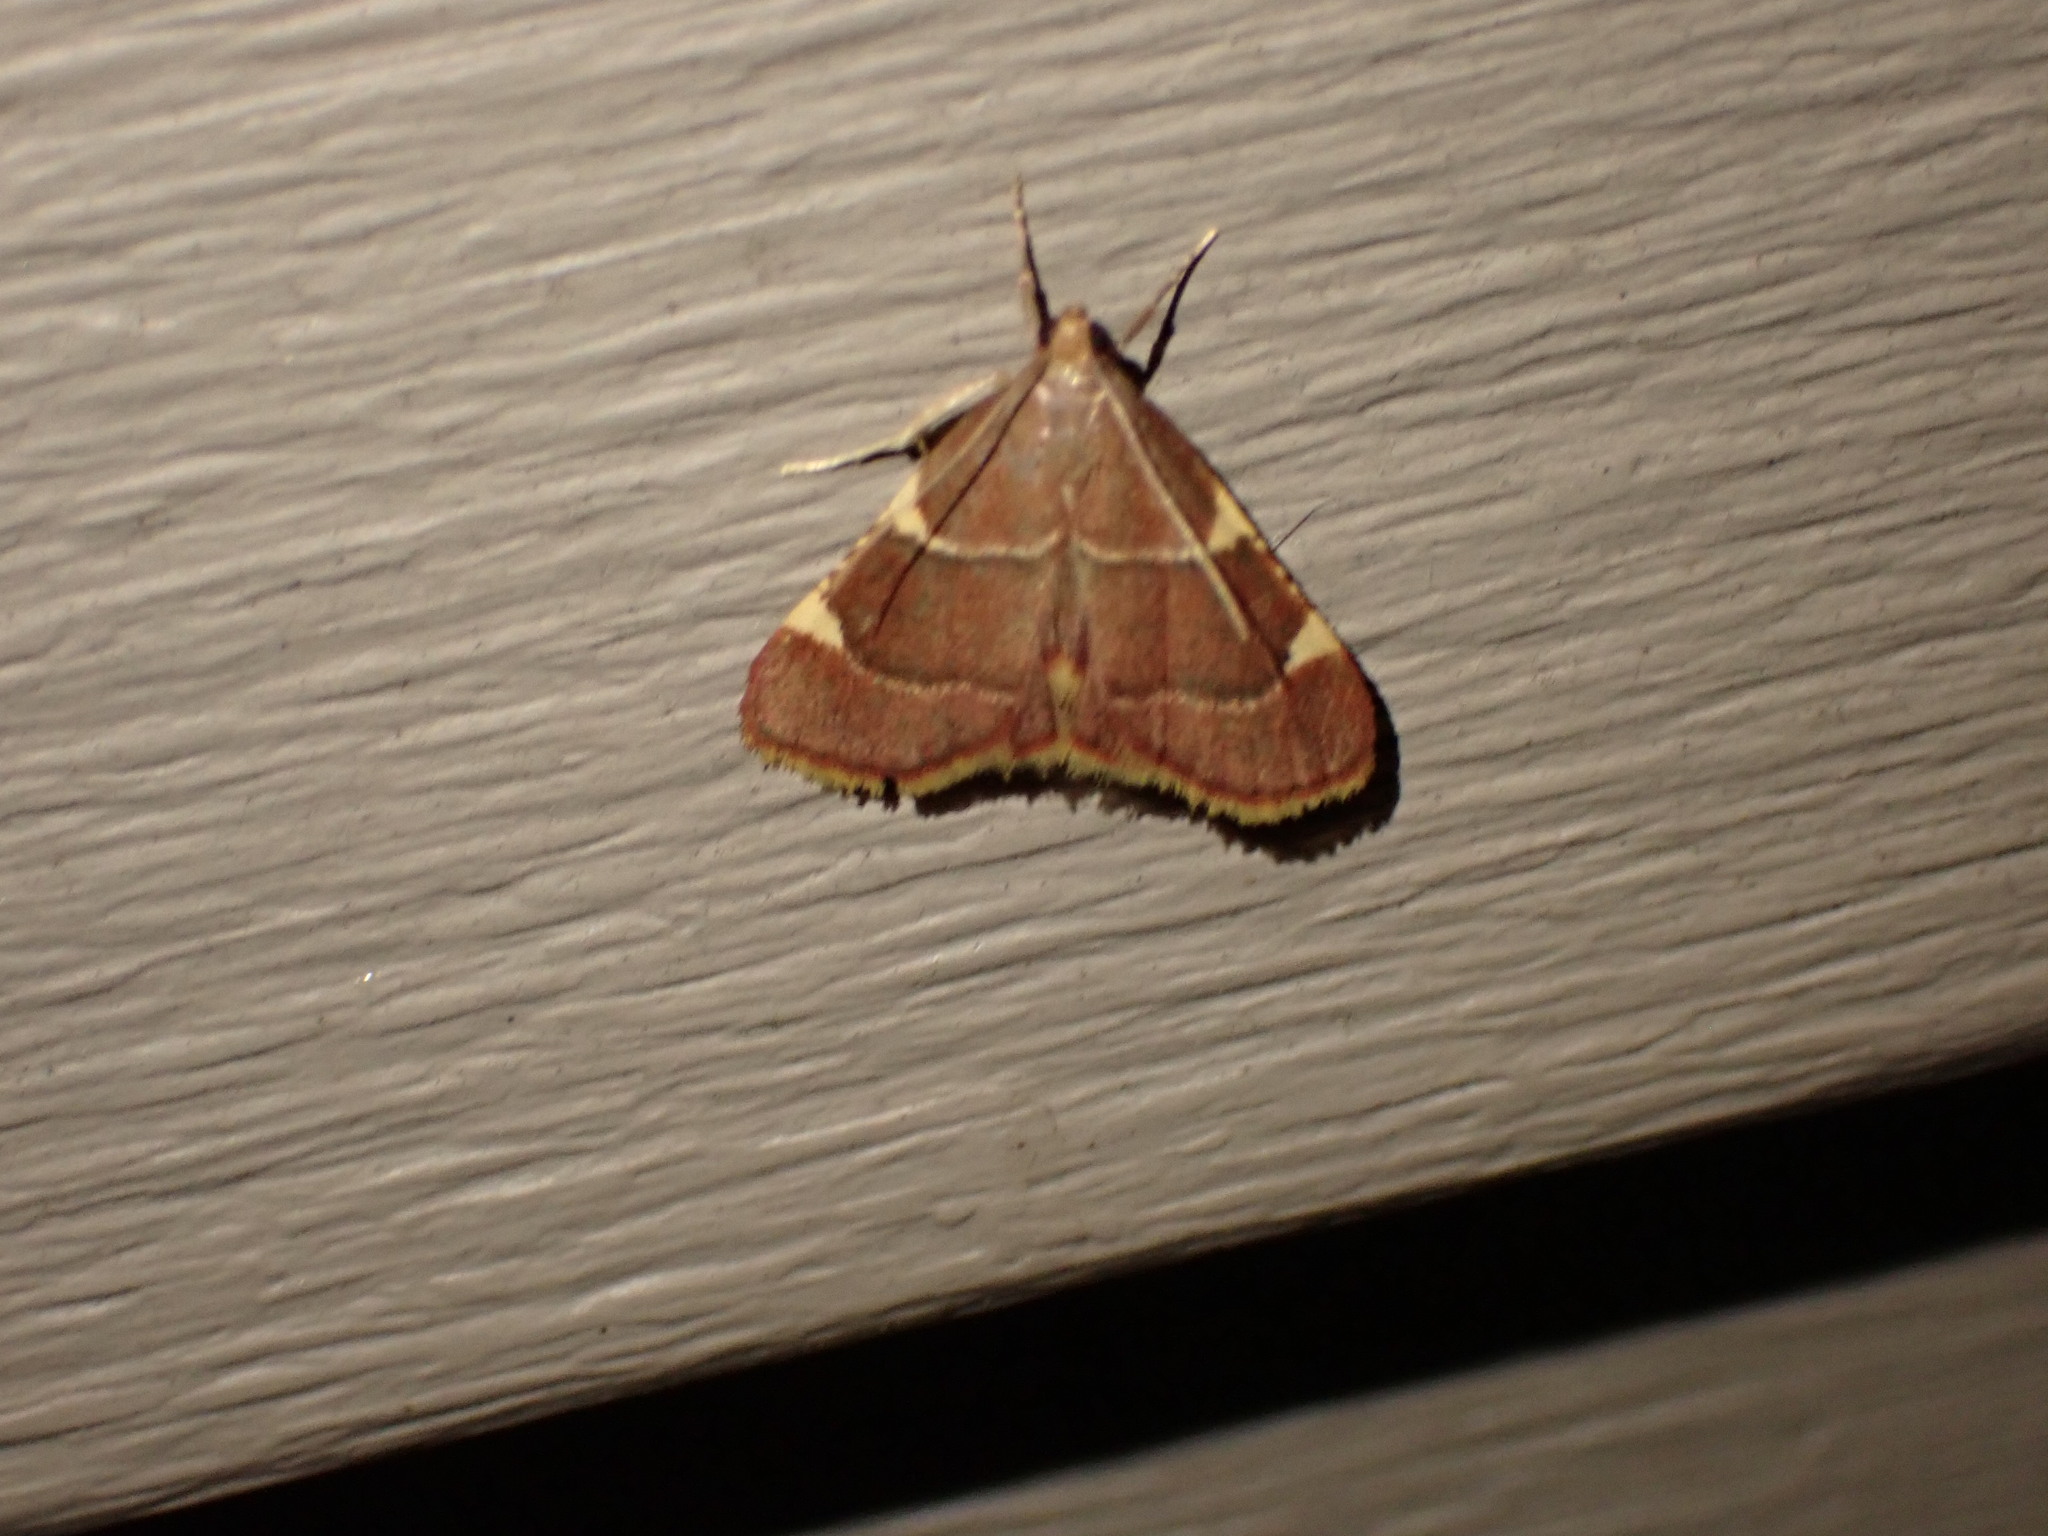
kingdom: Animalia
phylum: Arthropoda
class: Insecta
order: Lepidoptera
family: Pyralidae
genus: Hypsopygia
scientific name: Hypsopygia olinalis
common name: Yellow-fringed dolichomia moth
